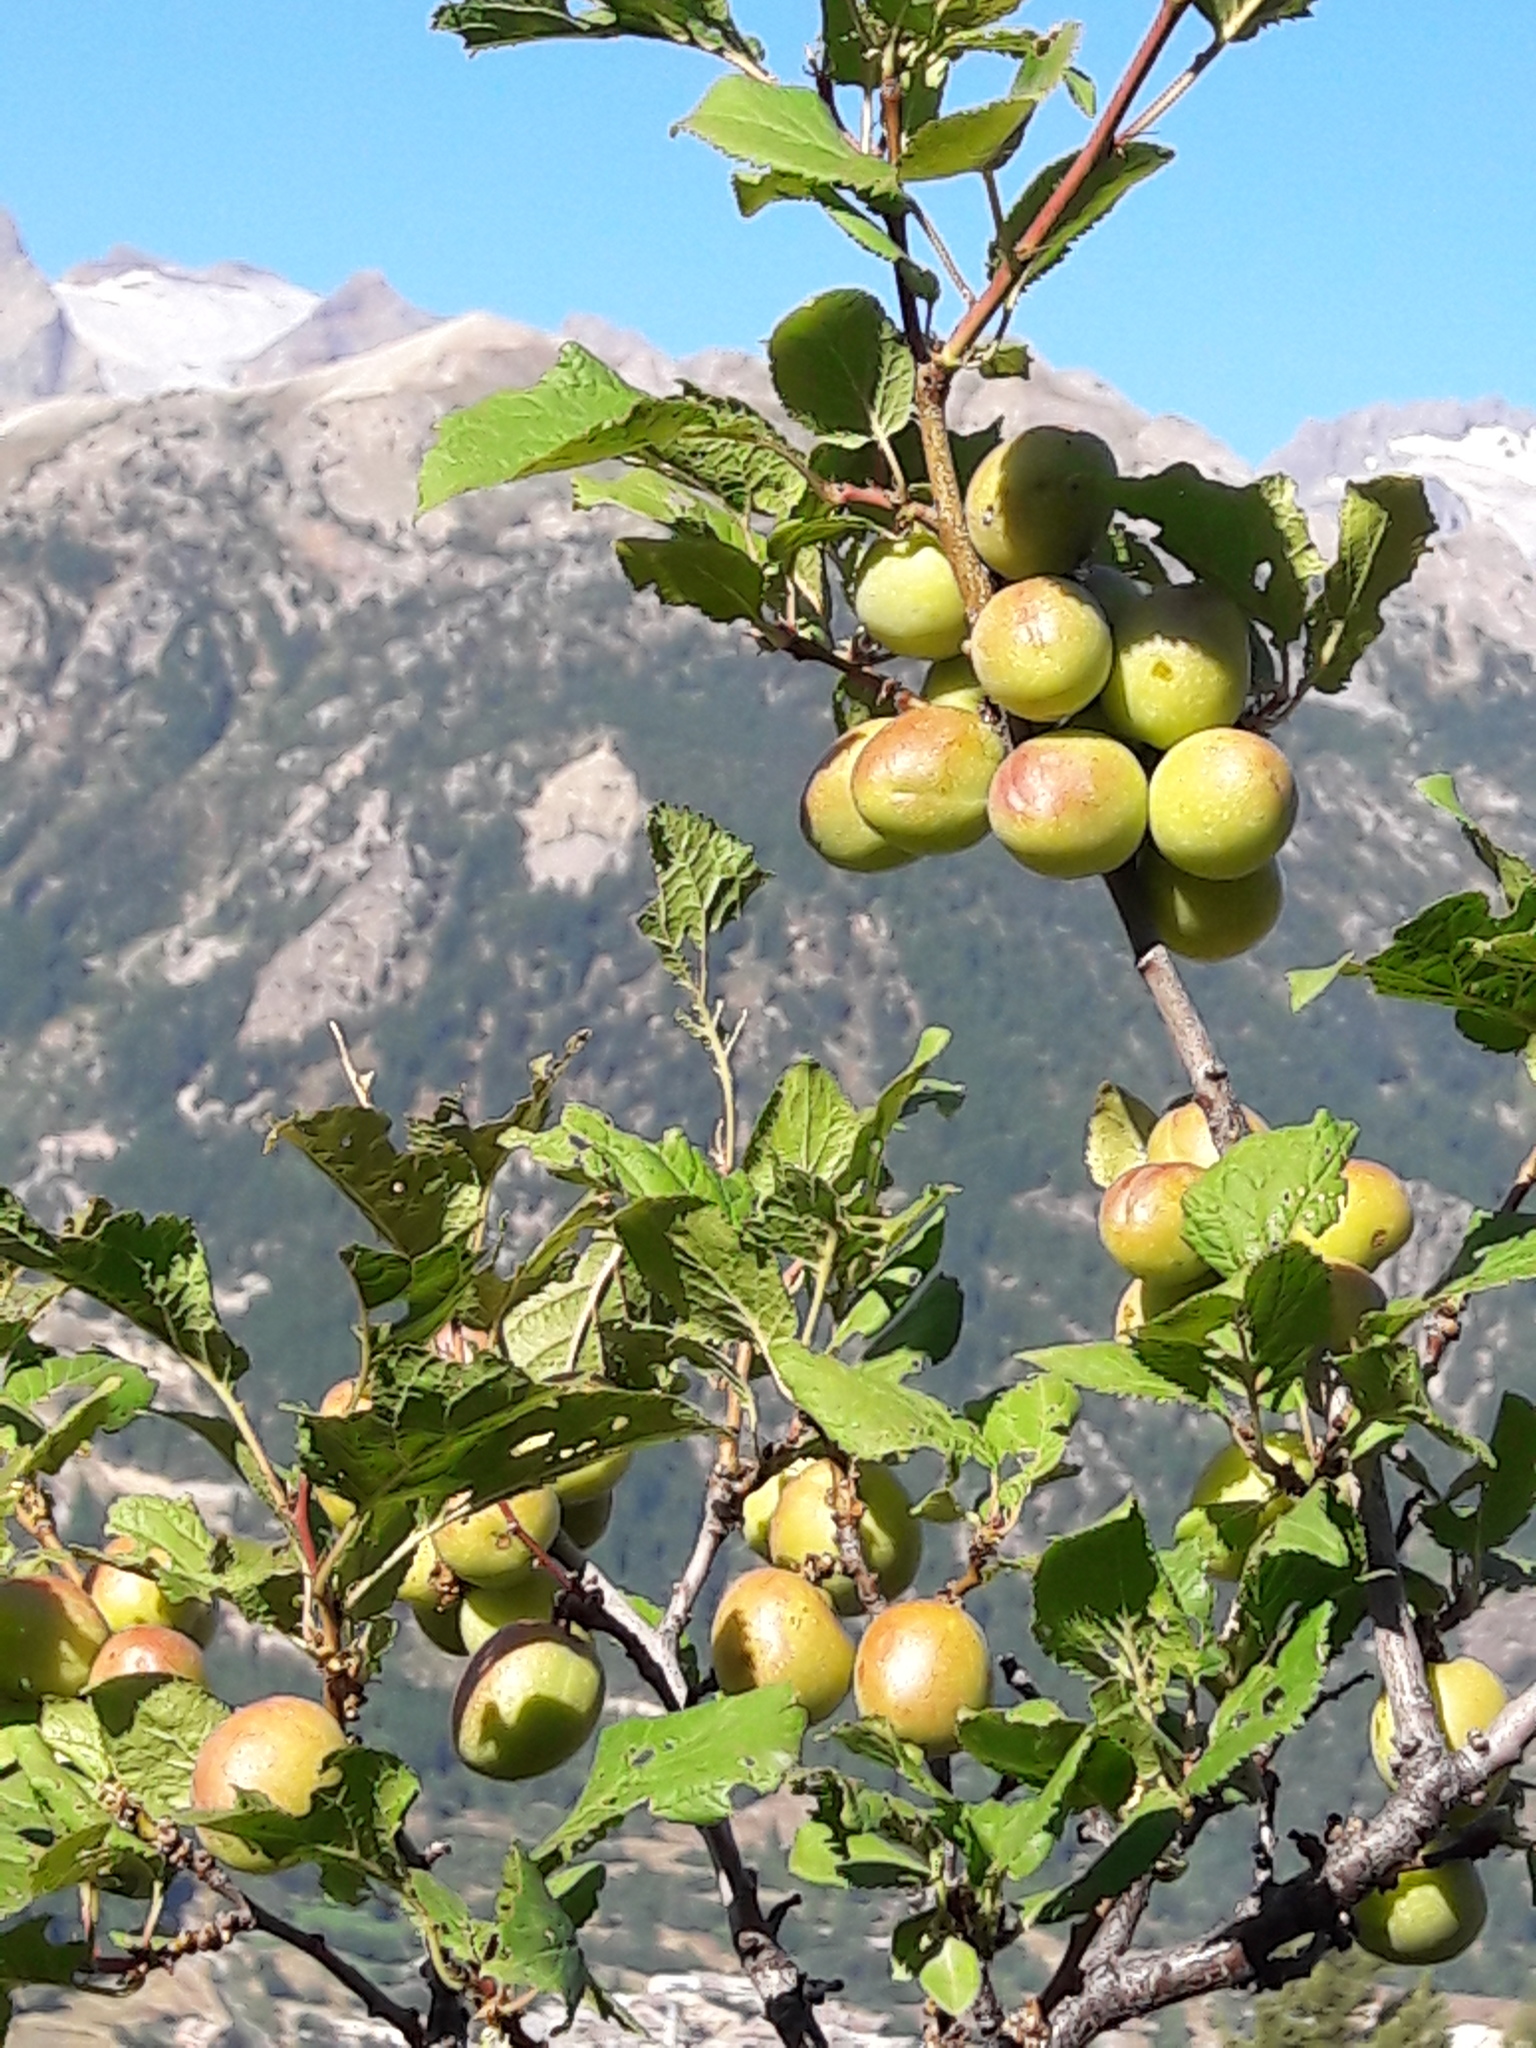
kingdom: Plantae
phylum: Tracheophyta
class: Magnoliopsida
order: Rosales
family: Rosaceae
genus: Prunus
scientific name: Prunus brigantina
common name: Briançon apricot
